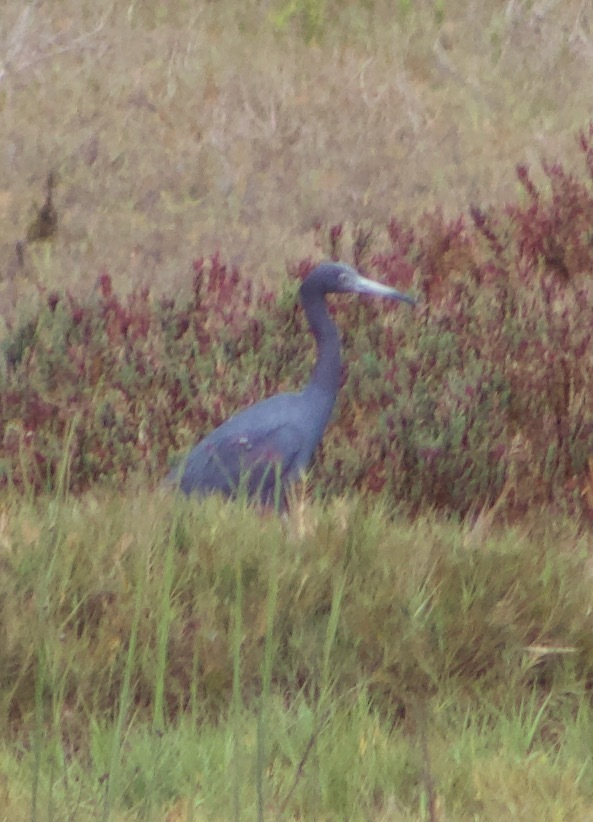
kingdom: Animalia
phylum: Chordata
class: Aves
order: Pelecaniformes
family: Ardeidae
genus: Egretta
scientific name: Egretta caerulea
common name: Little blue heron
